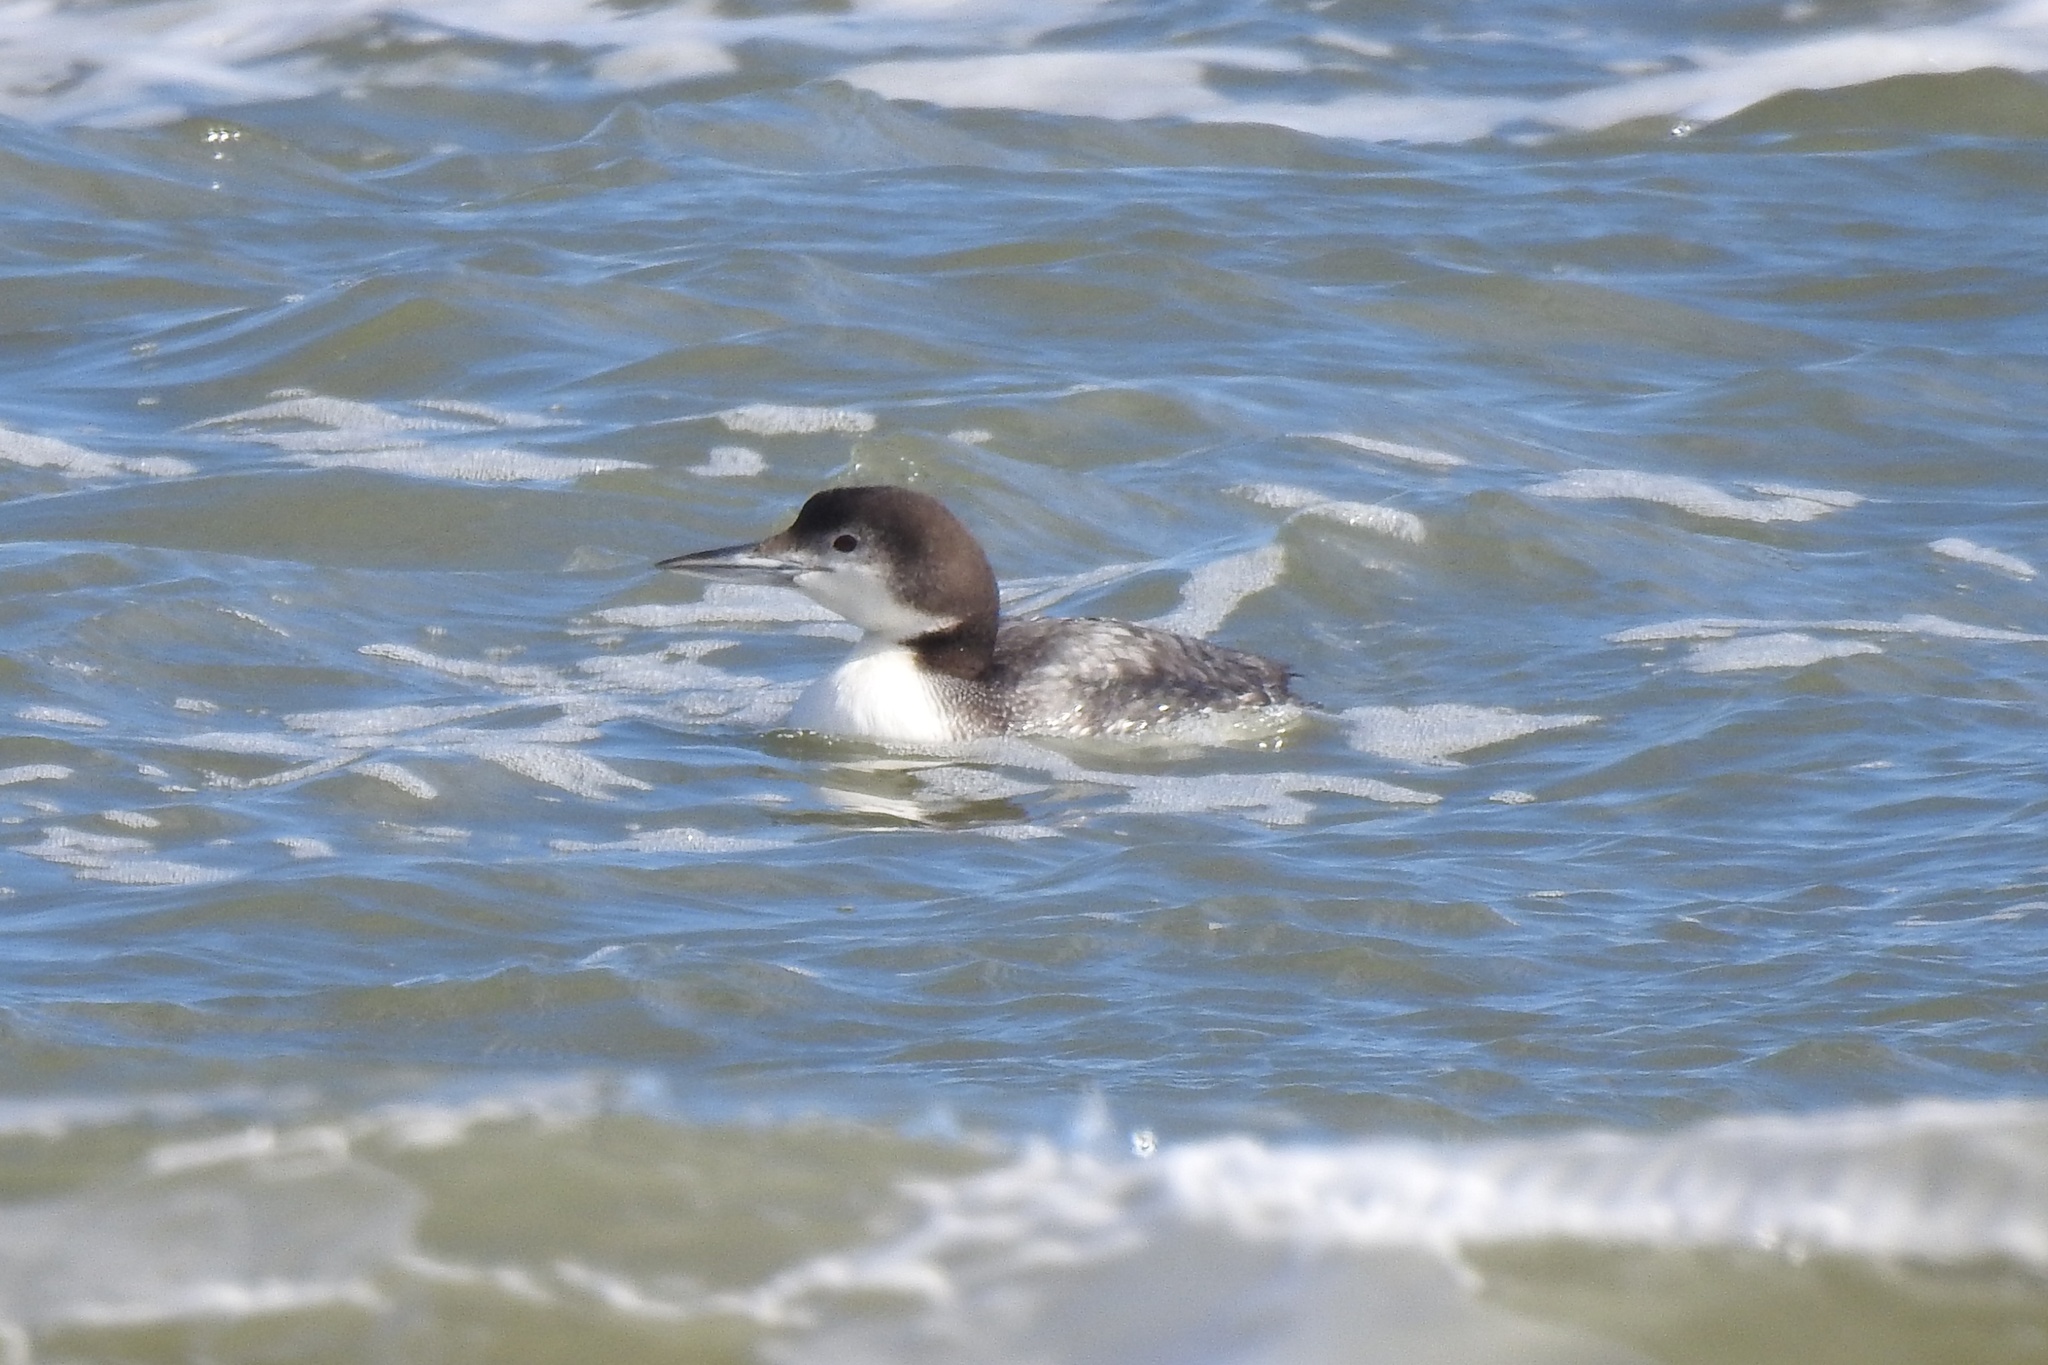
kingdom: Animalia
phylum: Chordata
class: Aves
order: Gaviiformes
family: Gaviidae
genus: Gavia
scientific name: Gavia immer
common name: Common loon
